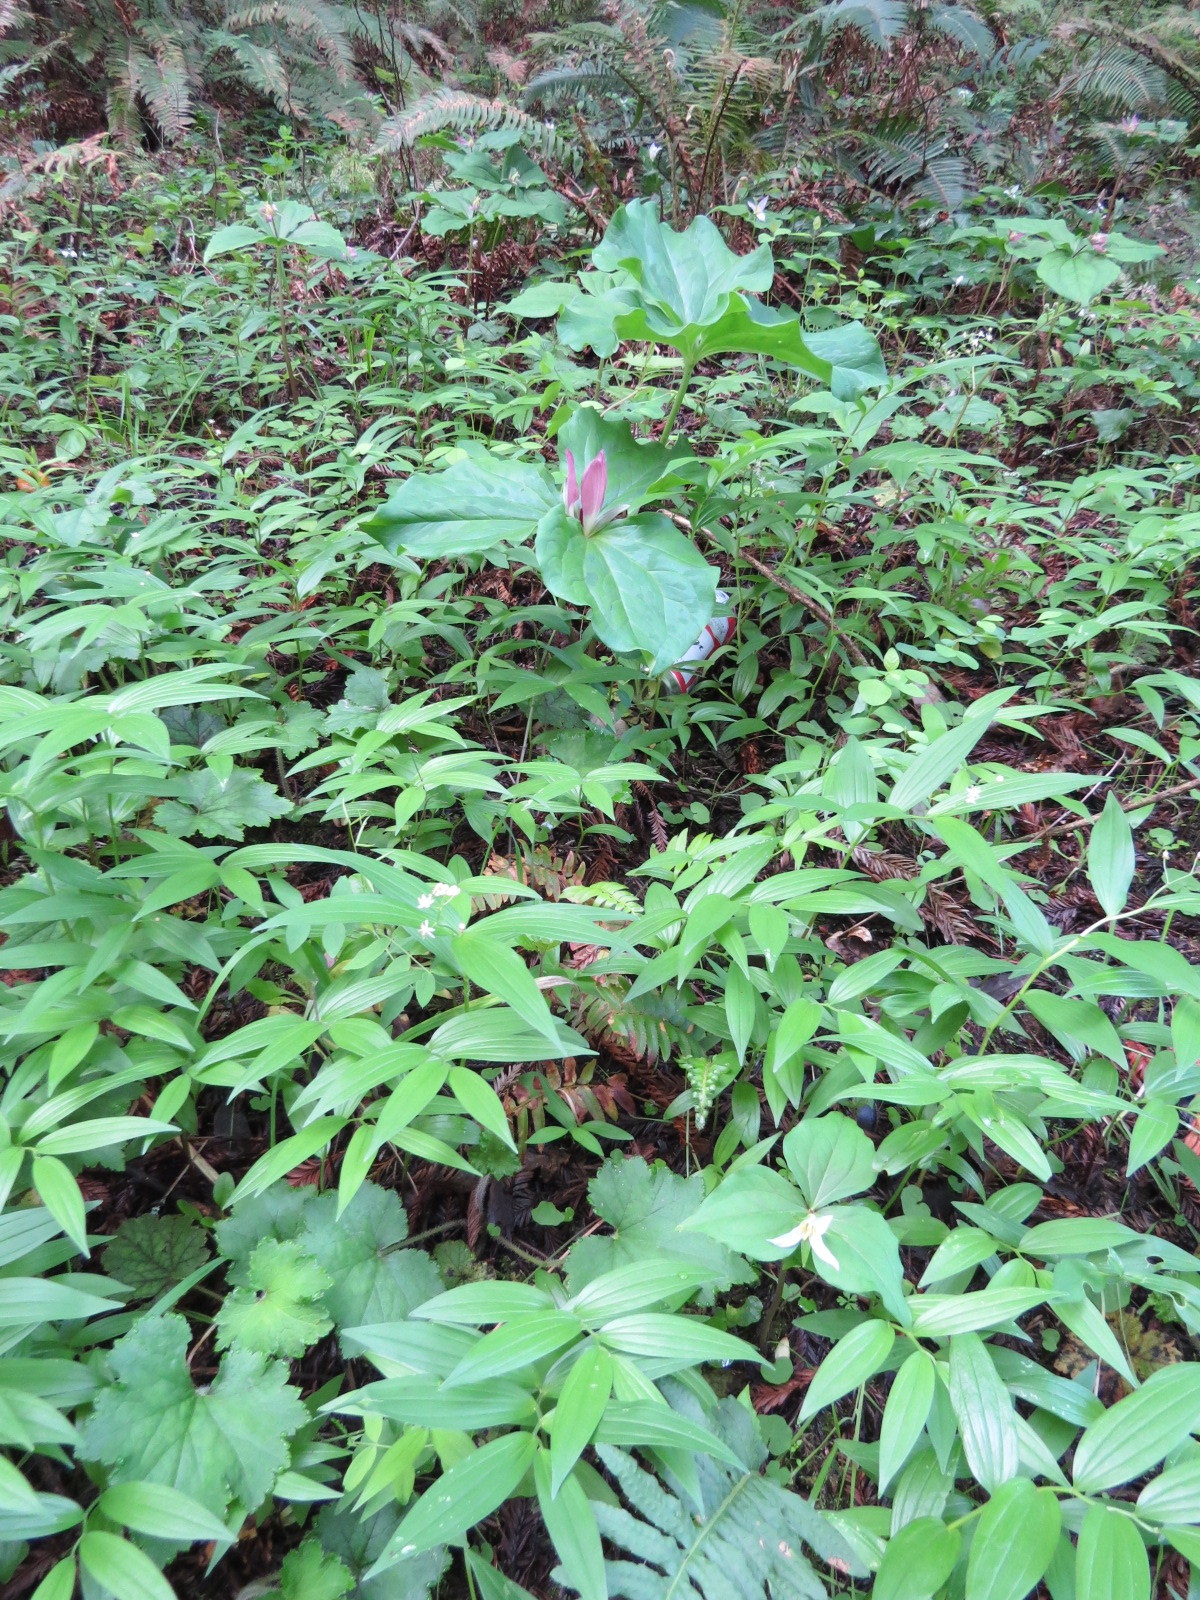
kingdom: Plantae
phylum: Tracheophyta
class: Liliopsida
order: Liliales
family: Melanthiaceae
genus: Trillium
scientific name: Trillium chloropetalum
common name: Giant trillium
